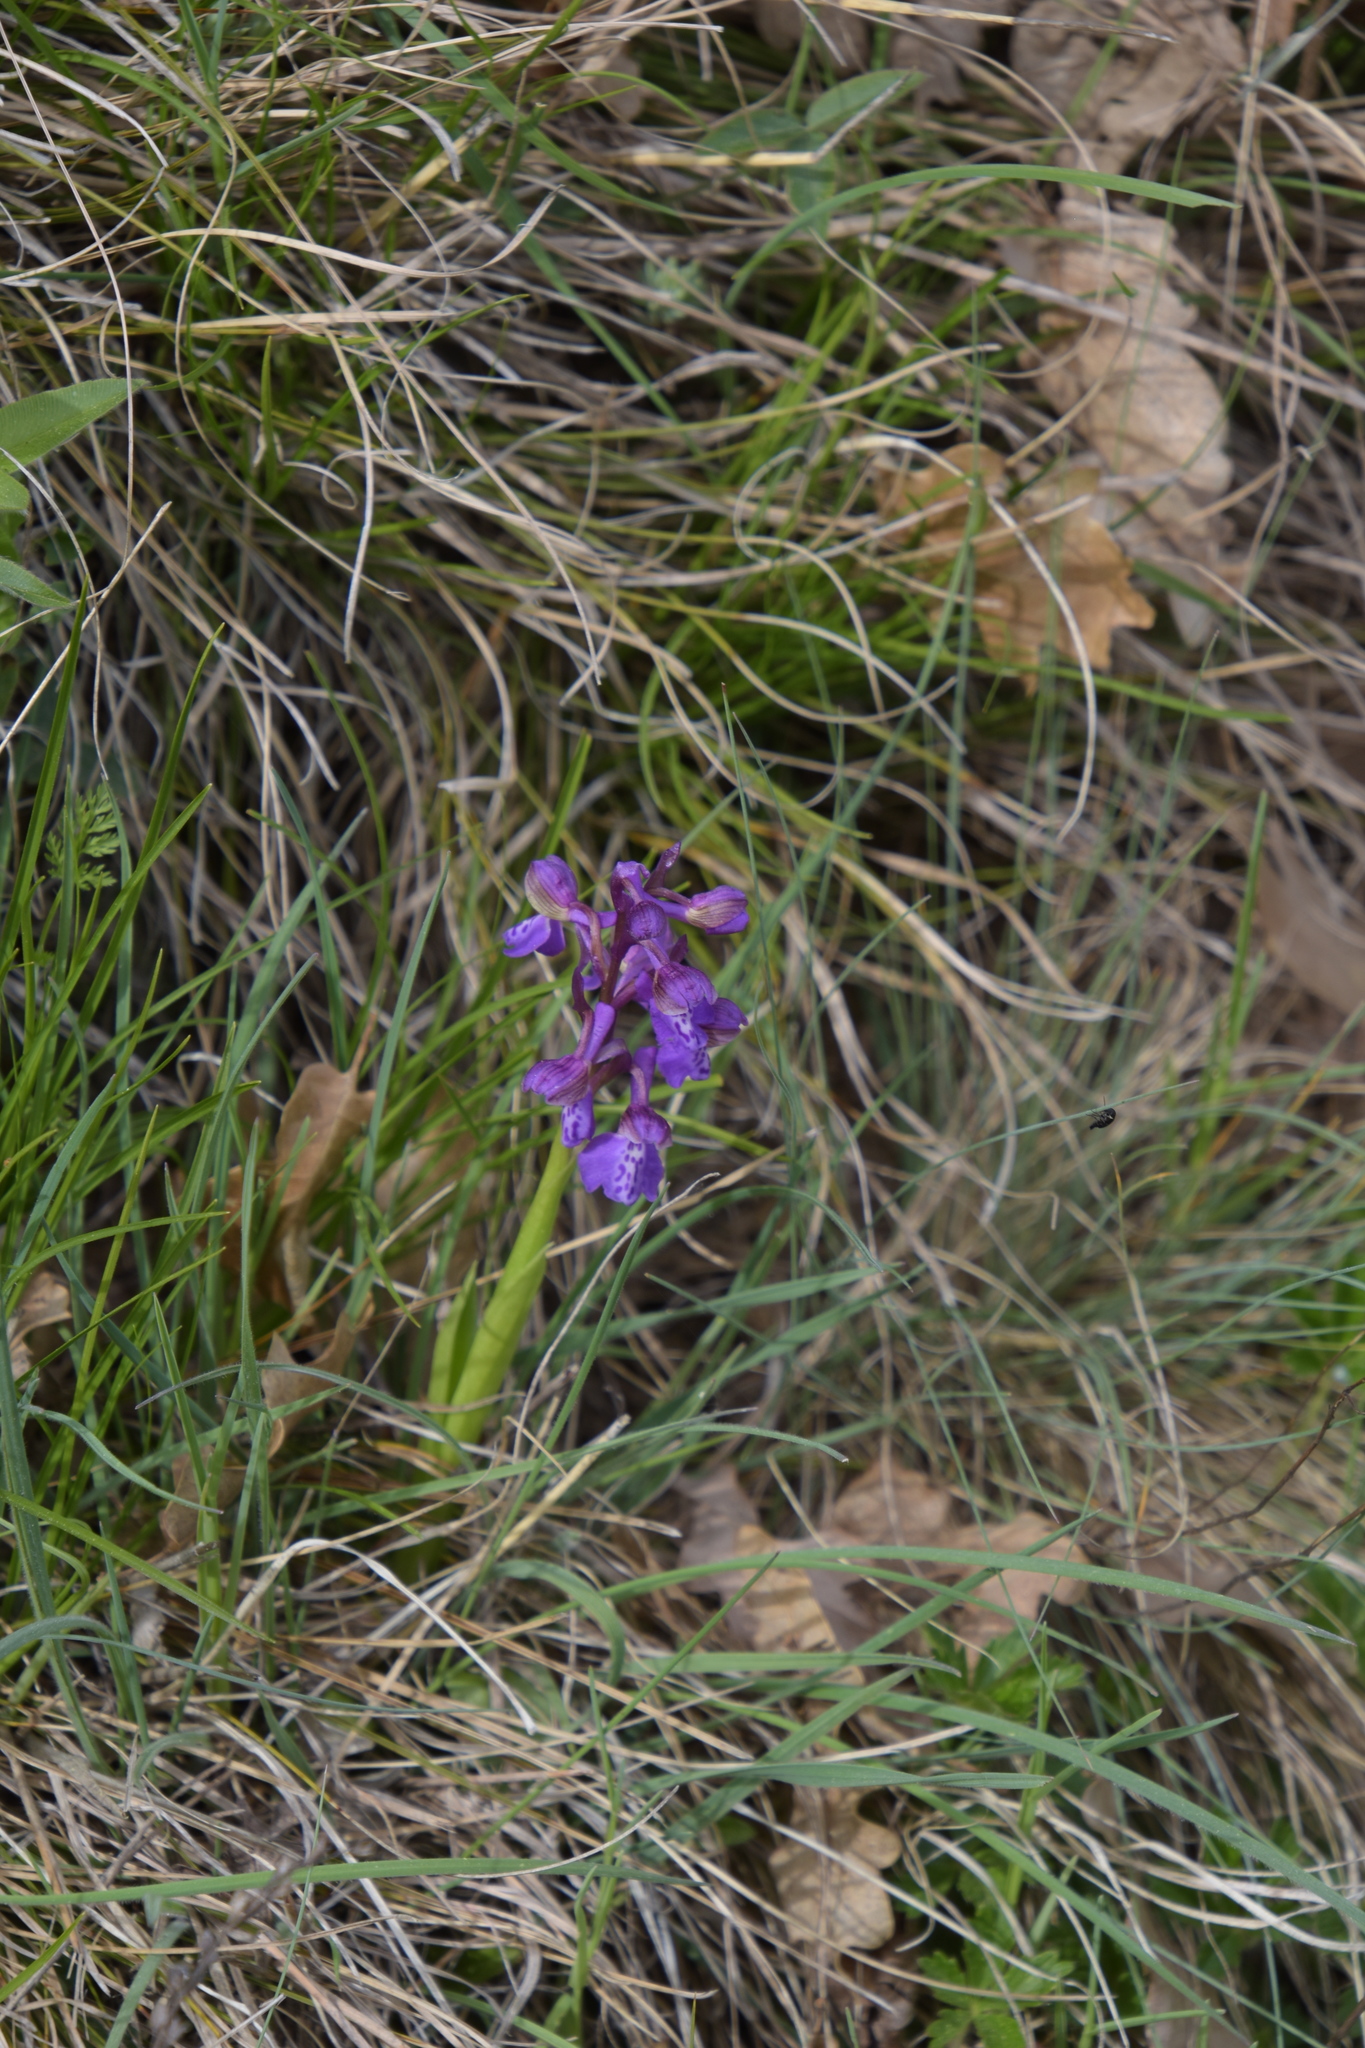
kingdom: Plantae
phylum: Tracheophyta
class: Liliopsida
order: Asparagales
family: Orchidaceae
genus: Anacamptis
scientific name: Anacamptis morio
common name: Green-winged orchid
